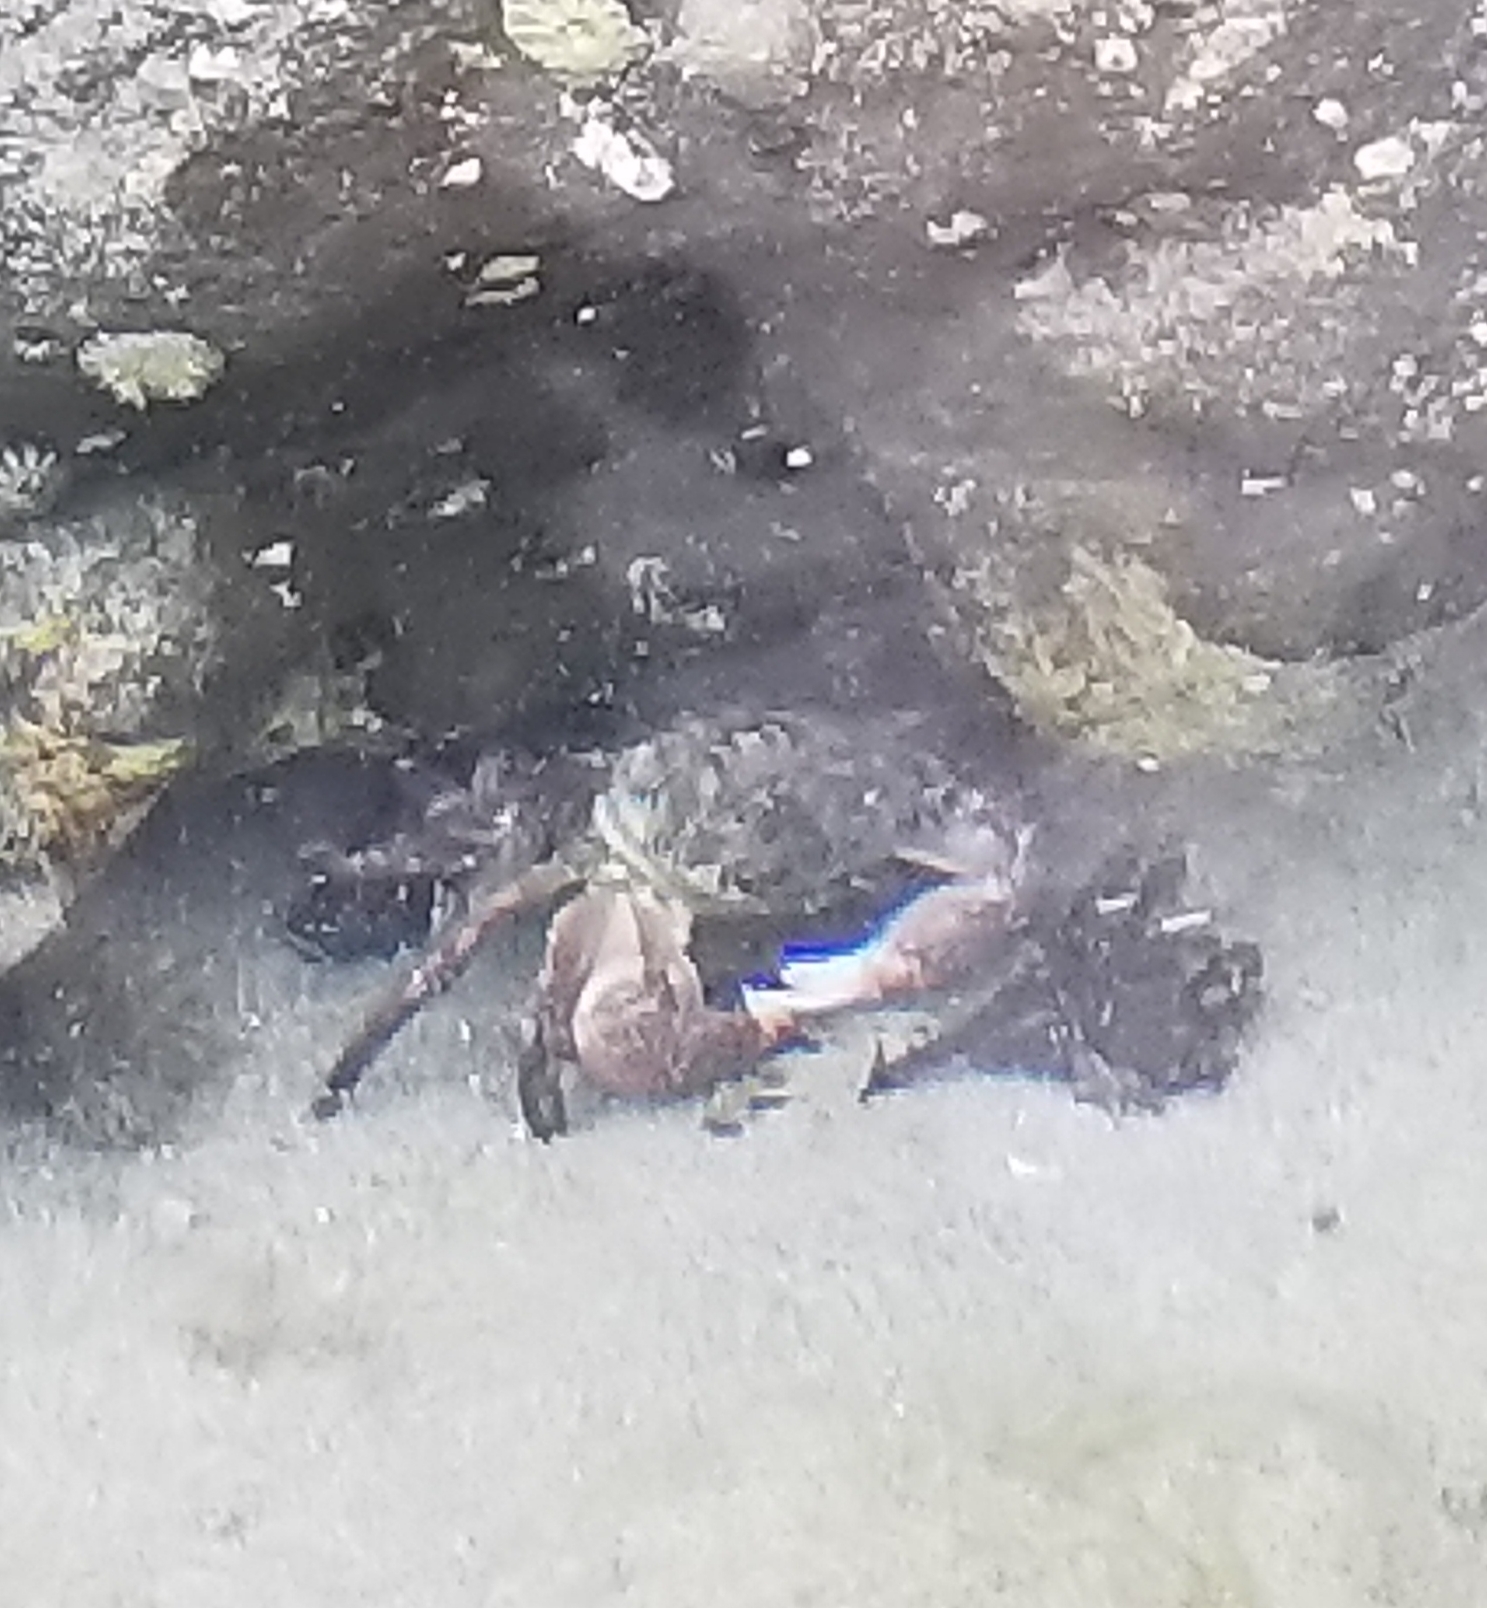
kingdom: Animalia
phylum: Arthropoda
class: Malacostraca
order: Decapoda
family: Grapsidae
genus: Pachygrapsus
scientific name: Pachygrapsus crassipes
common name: Striped shore crab
